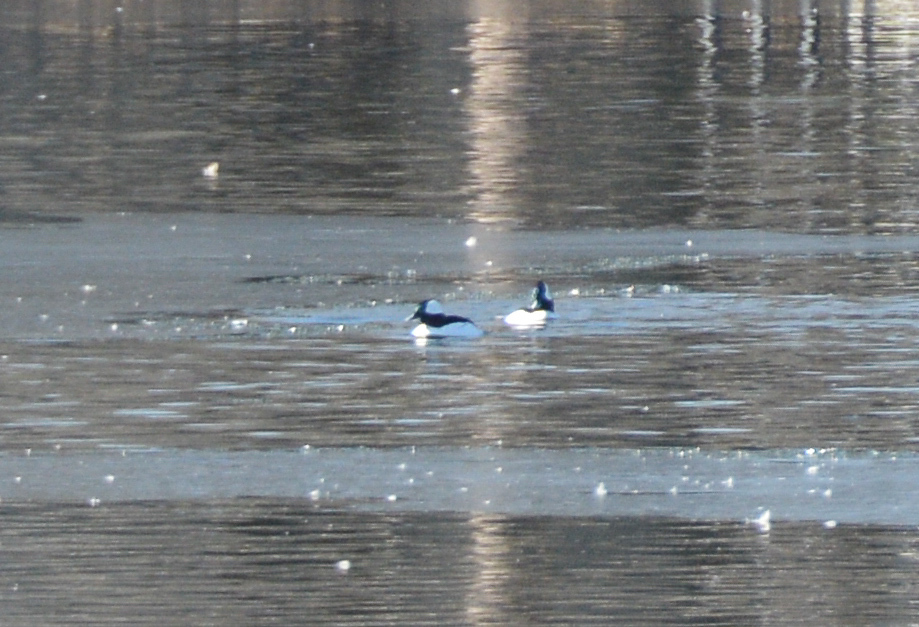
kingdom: Animalia
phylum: Chordata
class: Aves
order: Anseriformes
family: Anatidae
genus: Bucephala
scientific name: Bucephala albeola
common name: Bufflehead
